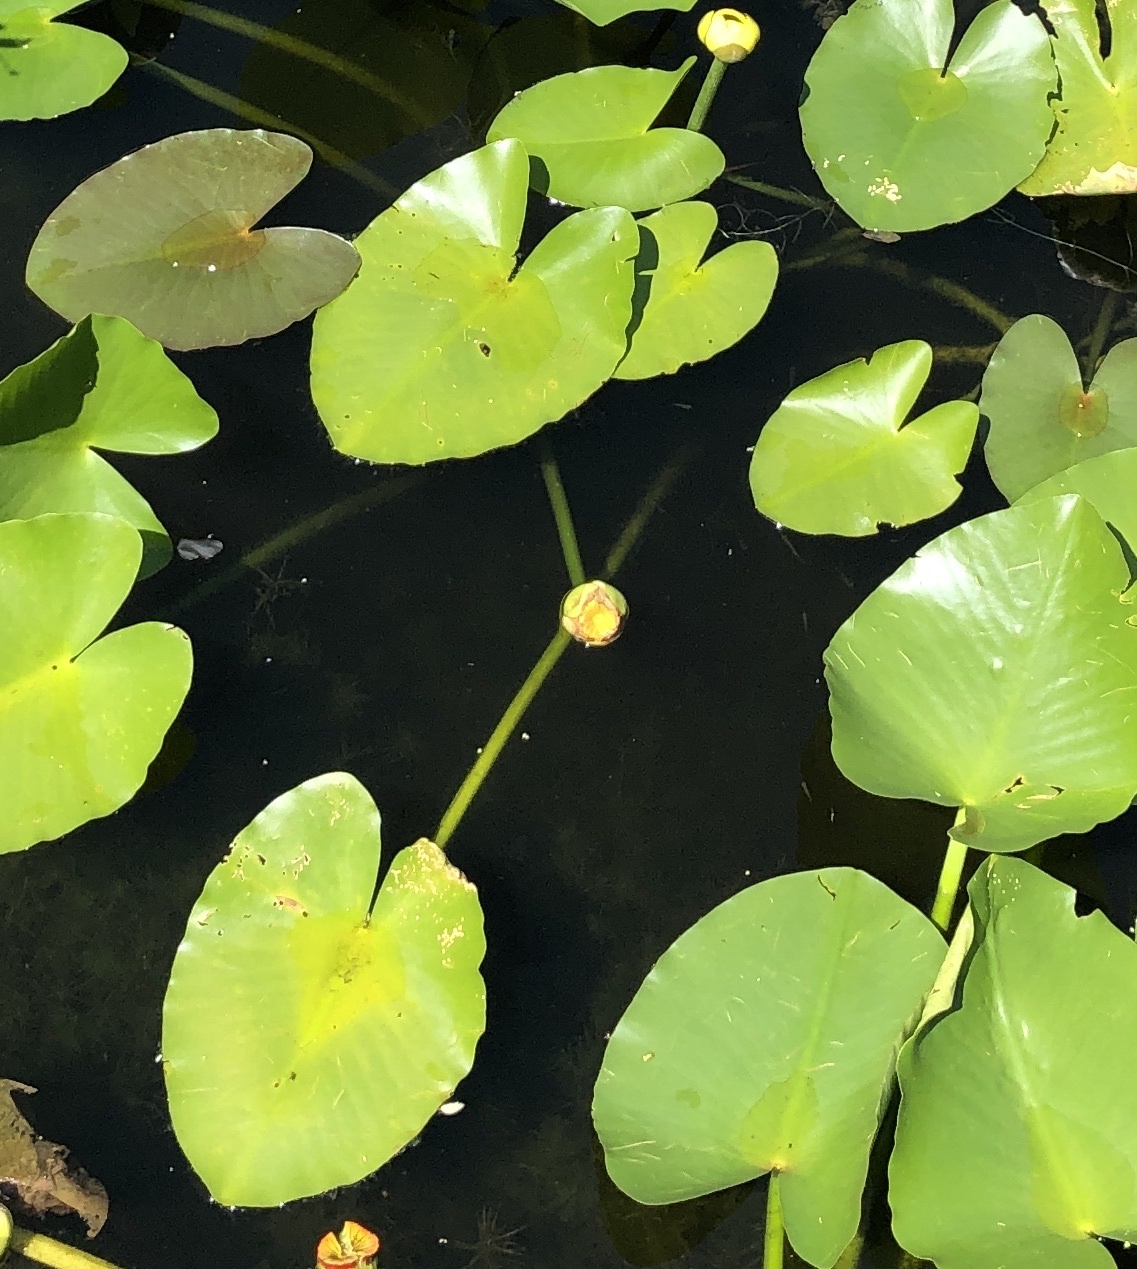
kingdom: Plantae
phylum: Tracheophyta
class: Magnoliopsida
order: Nymphaeales
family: Nymphaeaceae
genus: Nuphar
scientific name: Nuphar advena
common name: Spatter-dock
